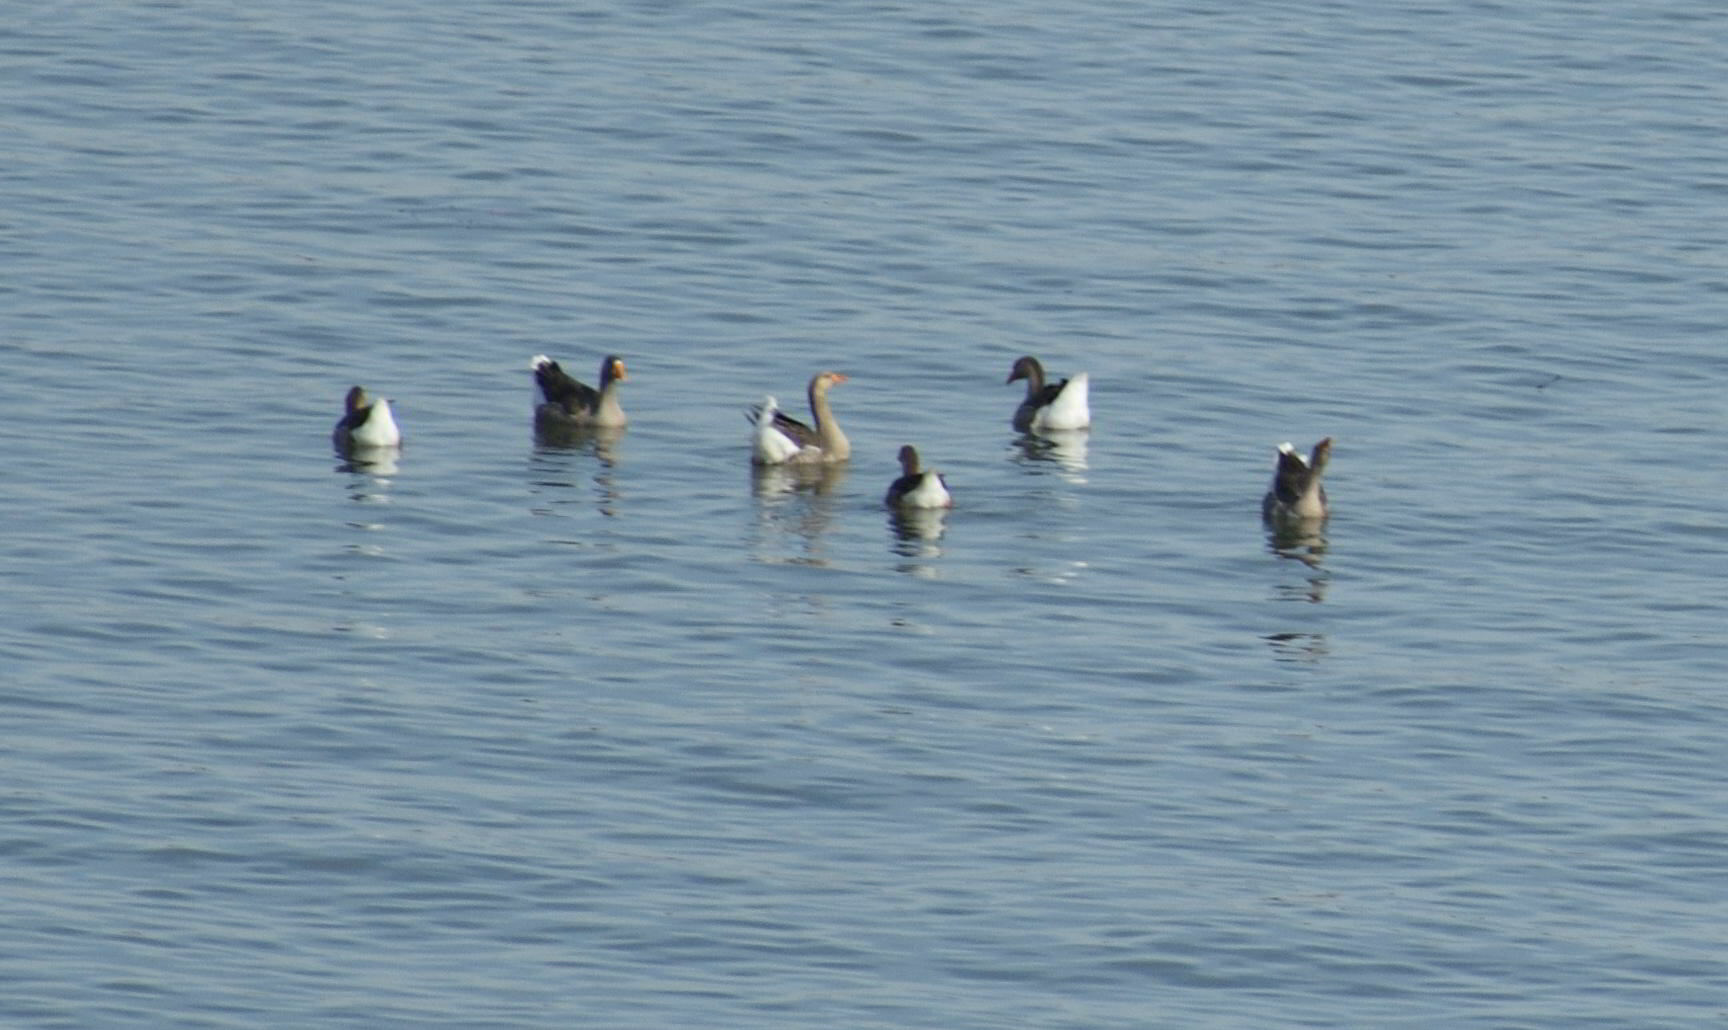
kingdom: Animalia
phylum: Chordata
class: Aves
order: Anseriformes
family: Anatidae
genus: Anser
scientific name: Anser anser
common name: Greylag goose
